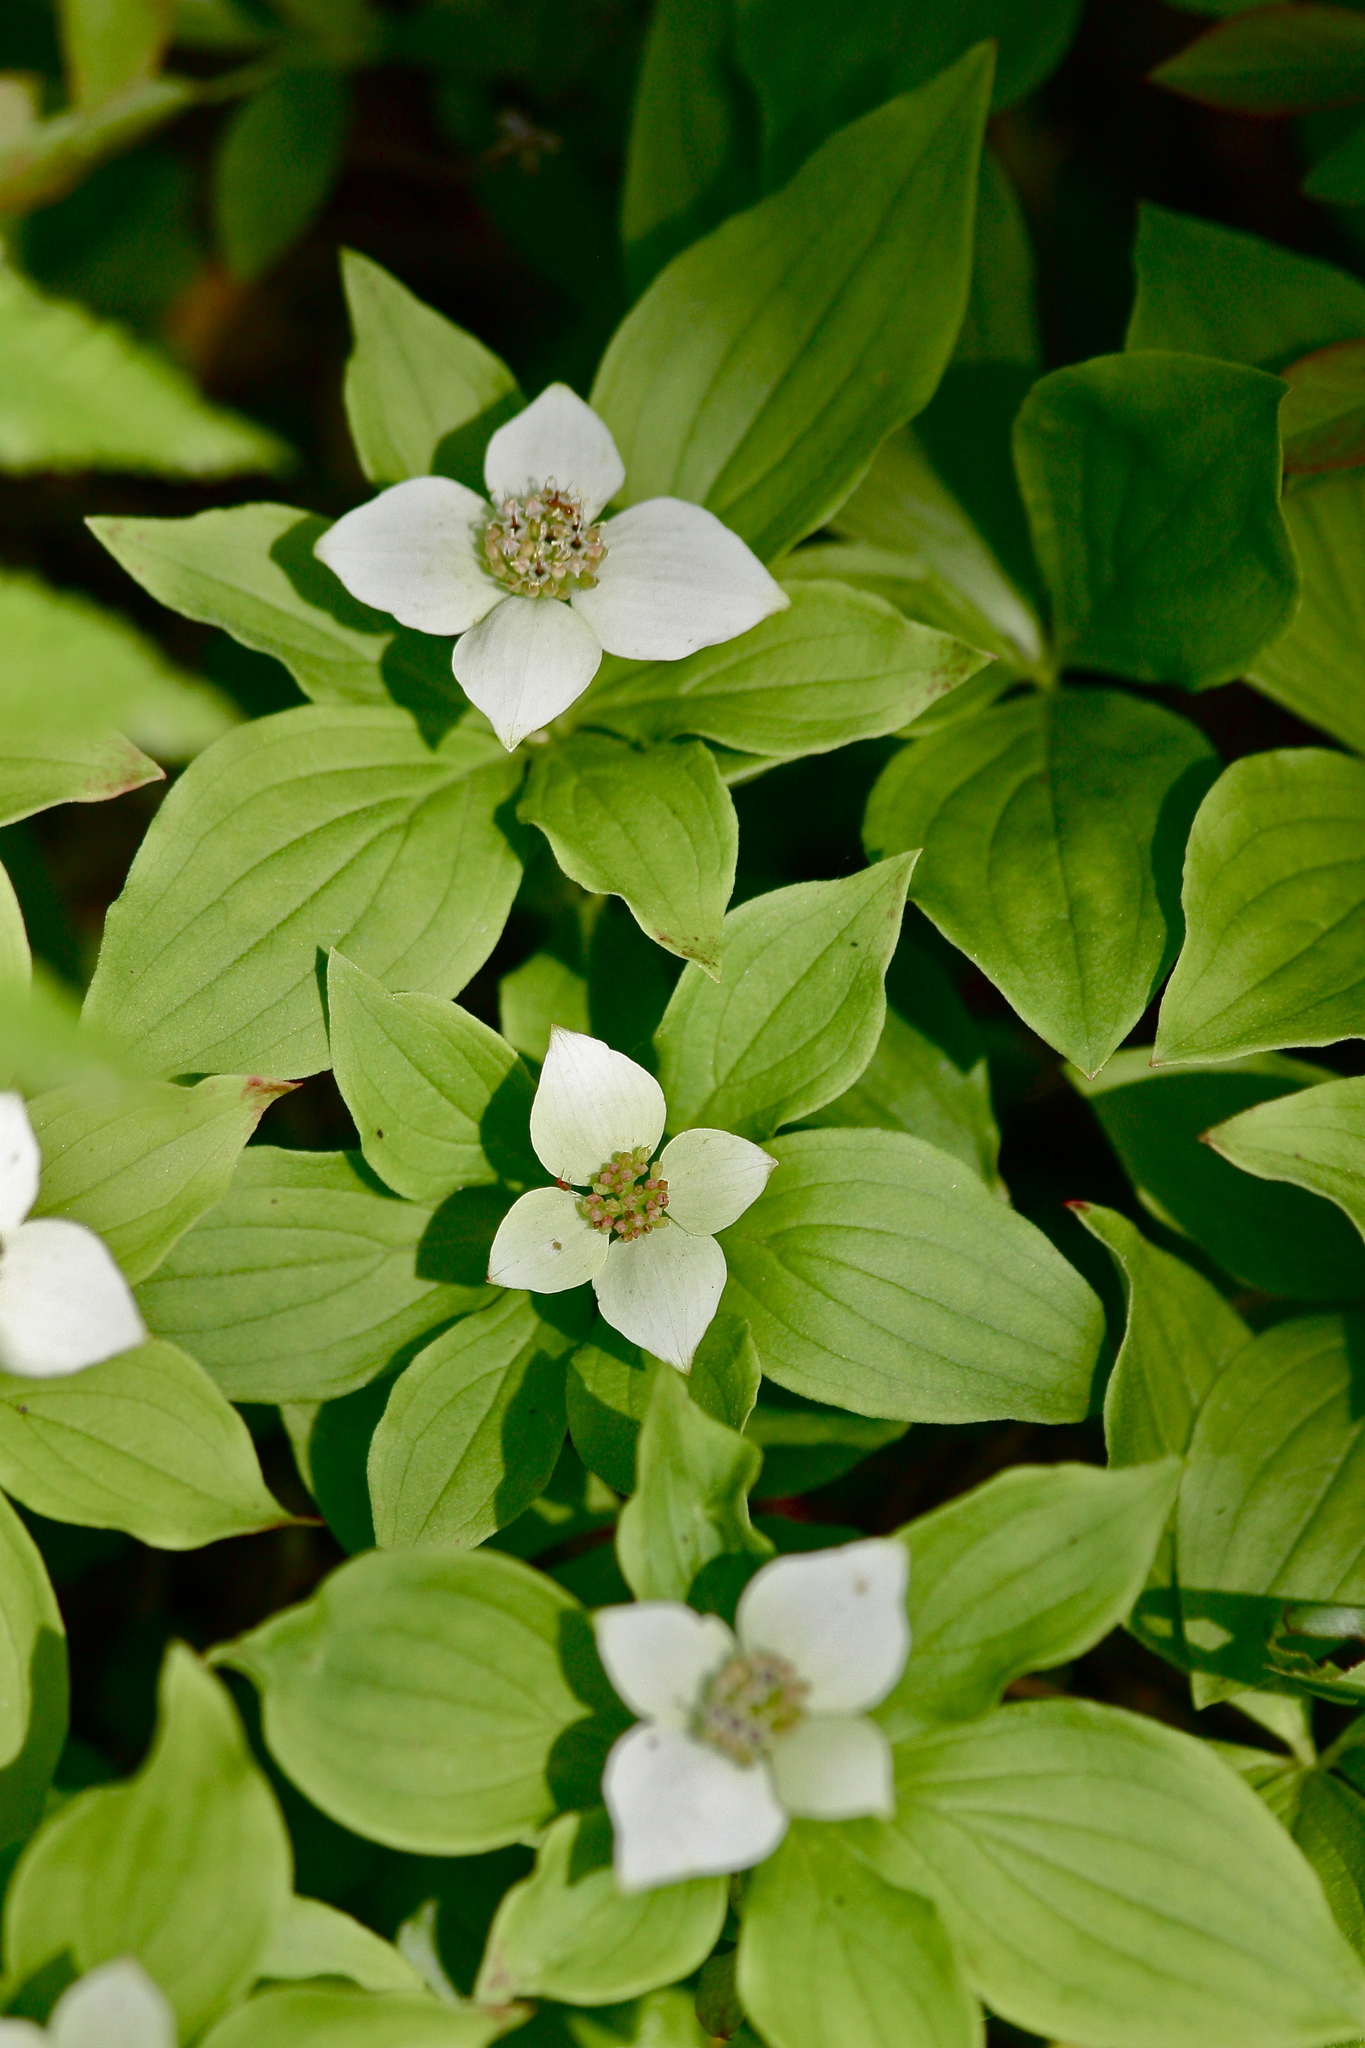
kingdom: Plantae
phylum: Tracheophyta
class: Magnoliopsida
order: Cornales
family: Cornaceae
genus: Cornus
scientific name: Cornus canadensis
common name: Creeping dogwood
